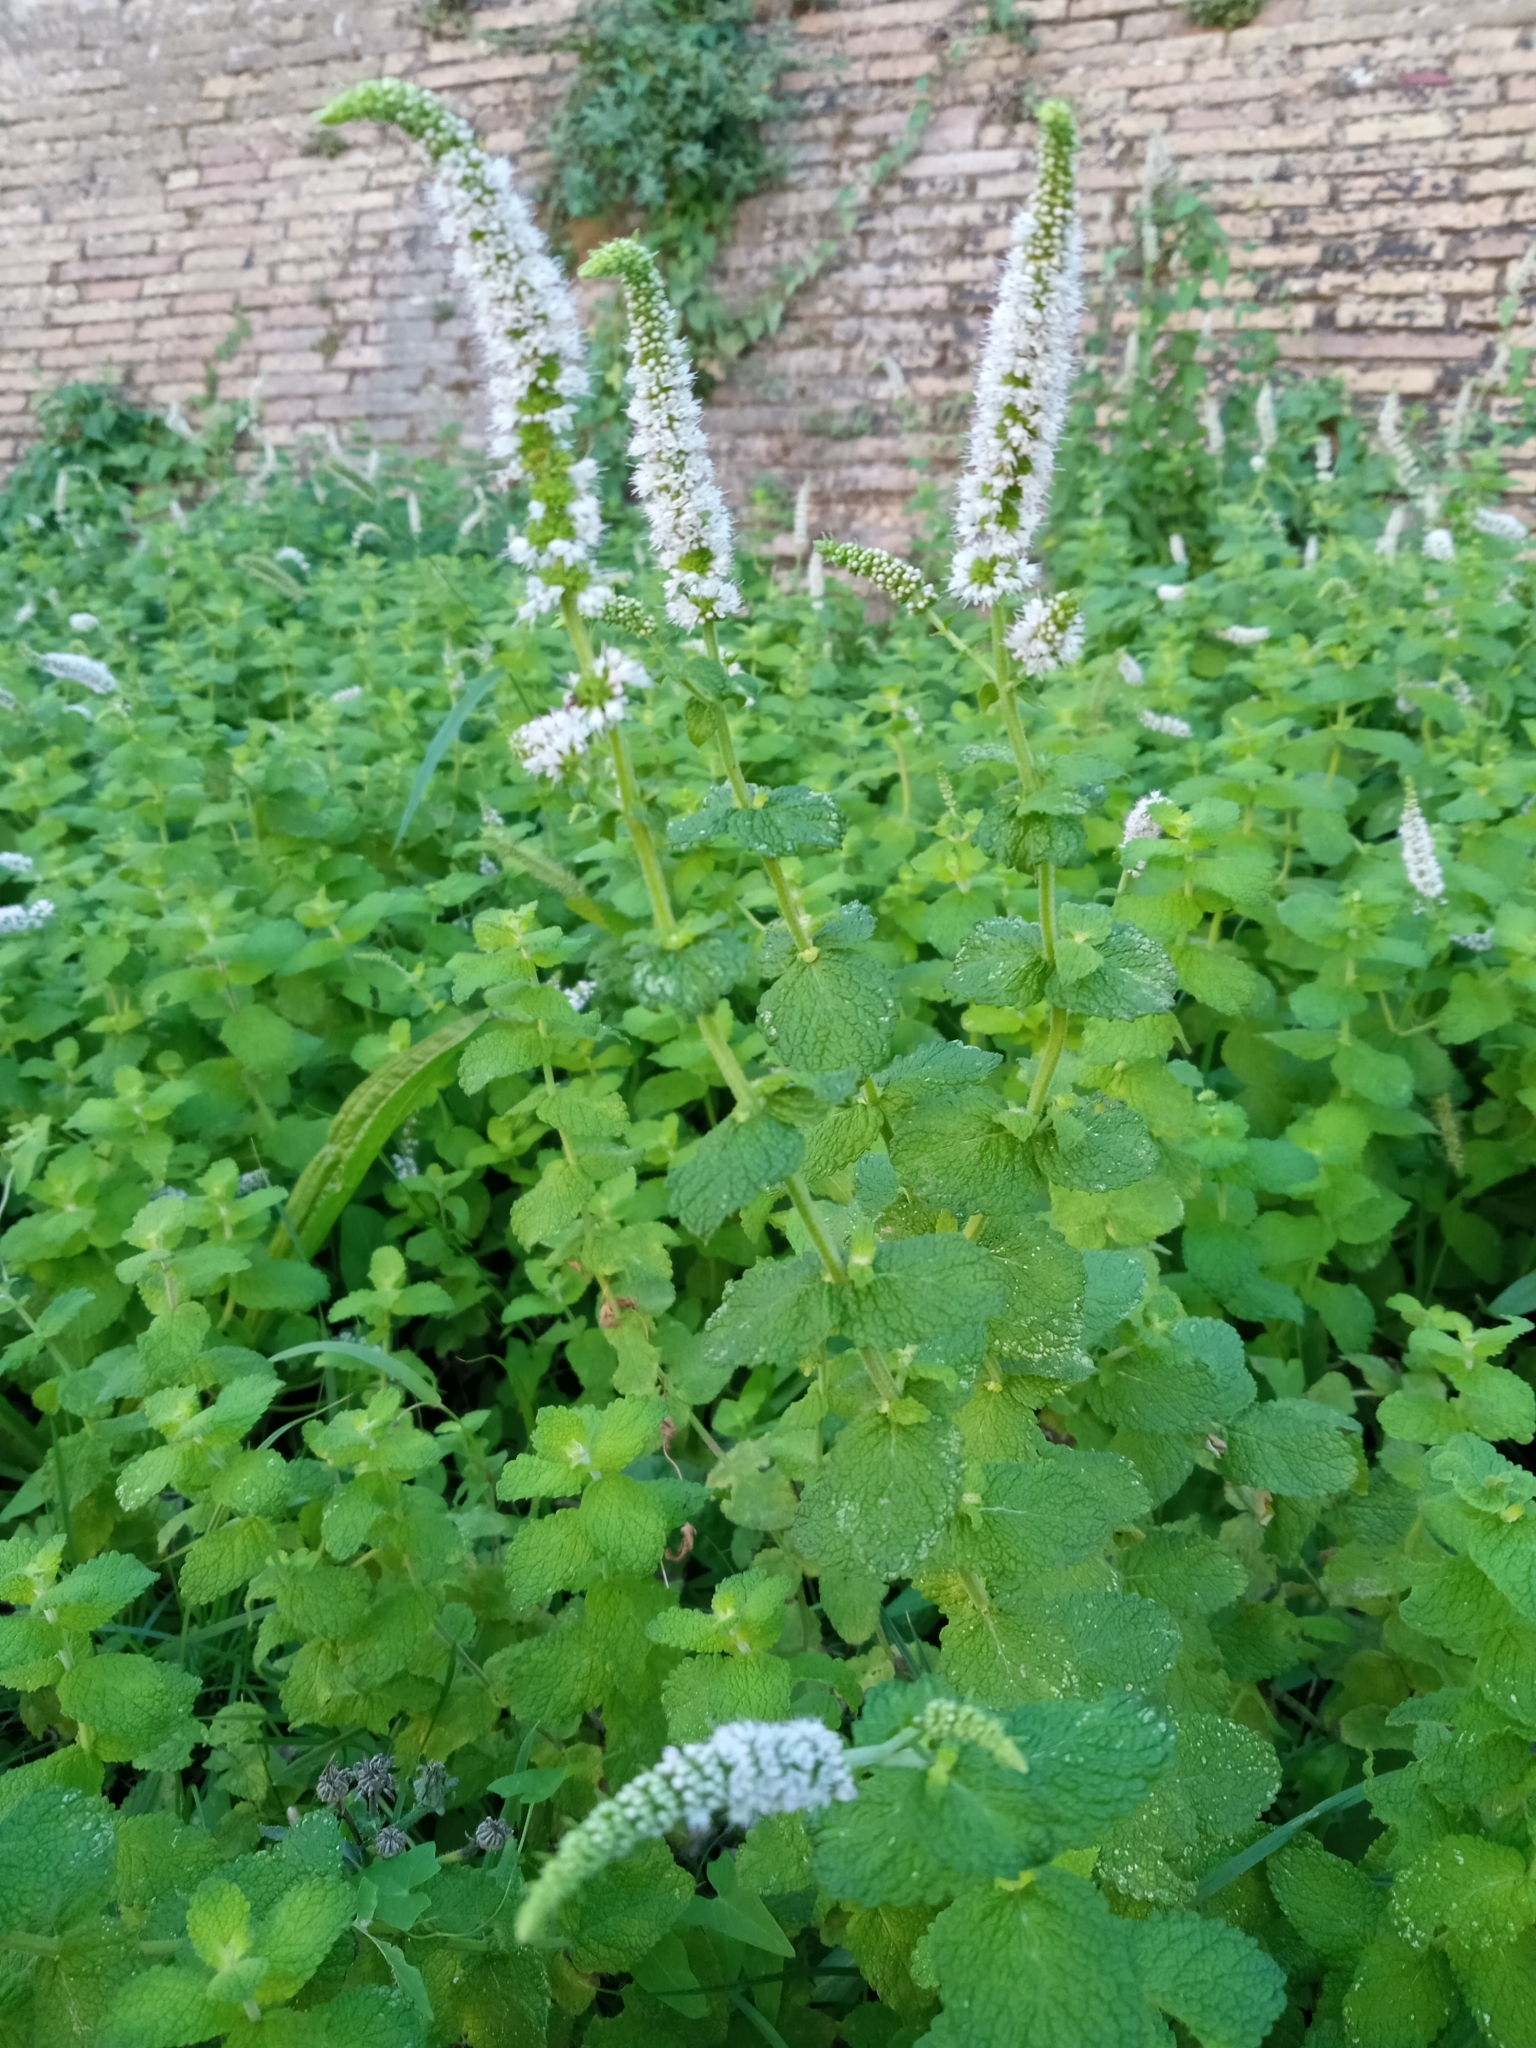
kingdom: Plantae
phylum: Tracheophyta
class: Magnoliopsida
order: Lamiales
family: Lamiaceae
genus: Mentha
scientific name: Mentha suaveolens
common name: Apple mint
